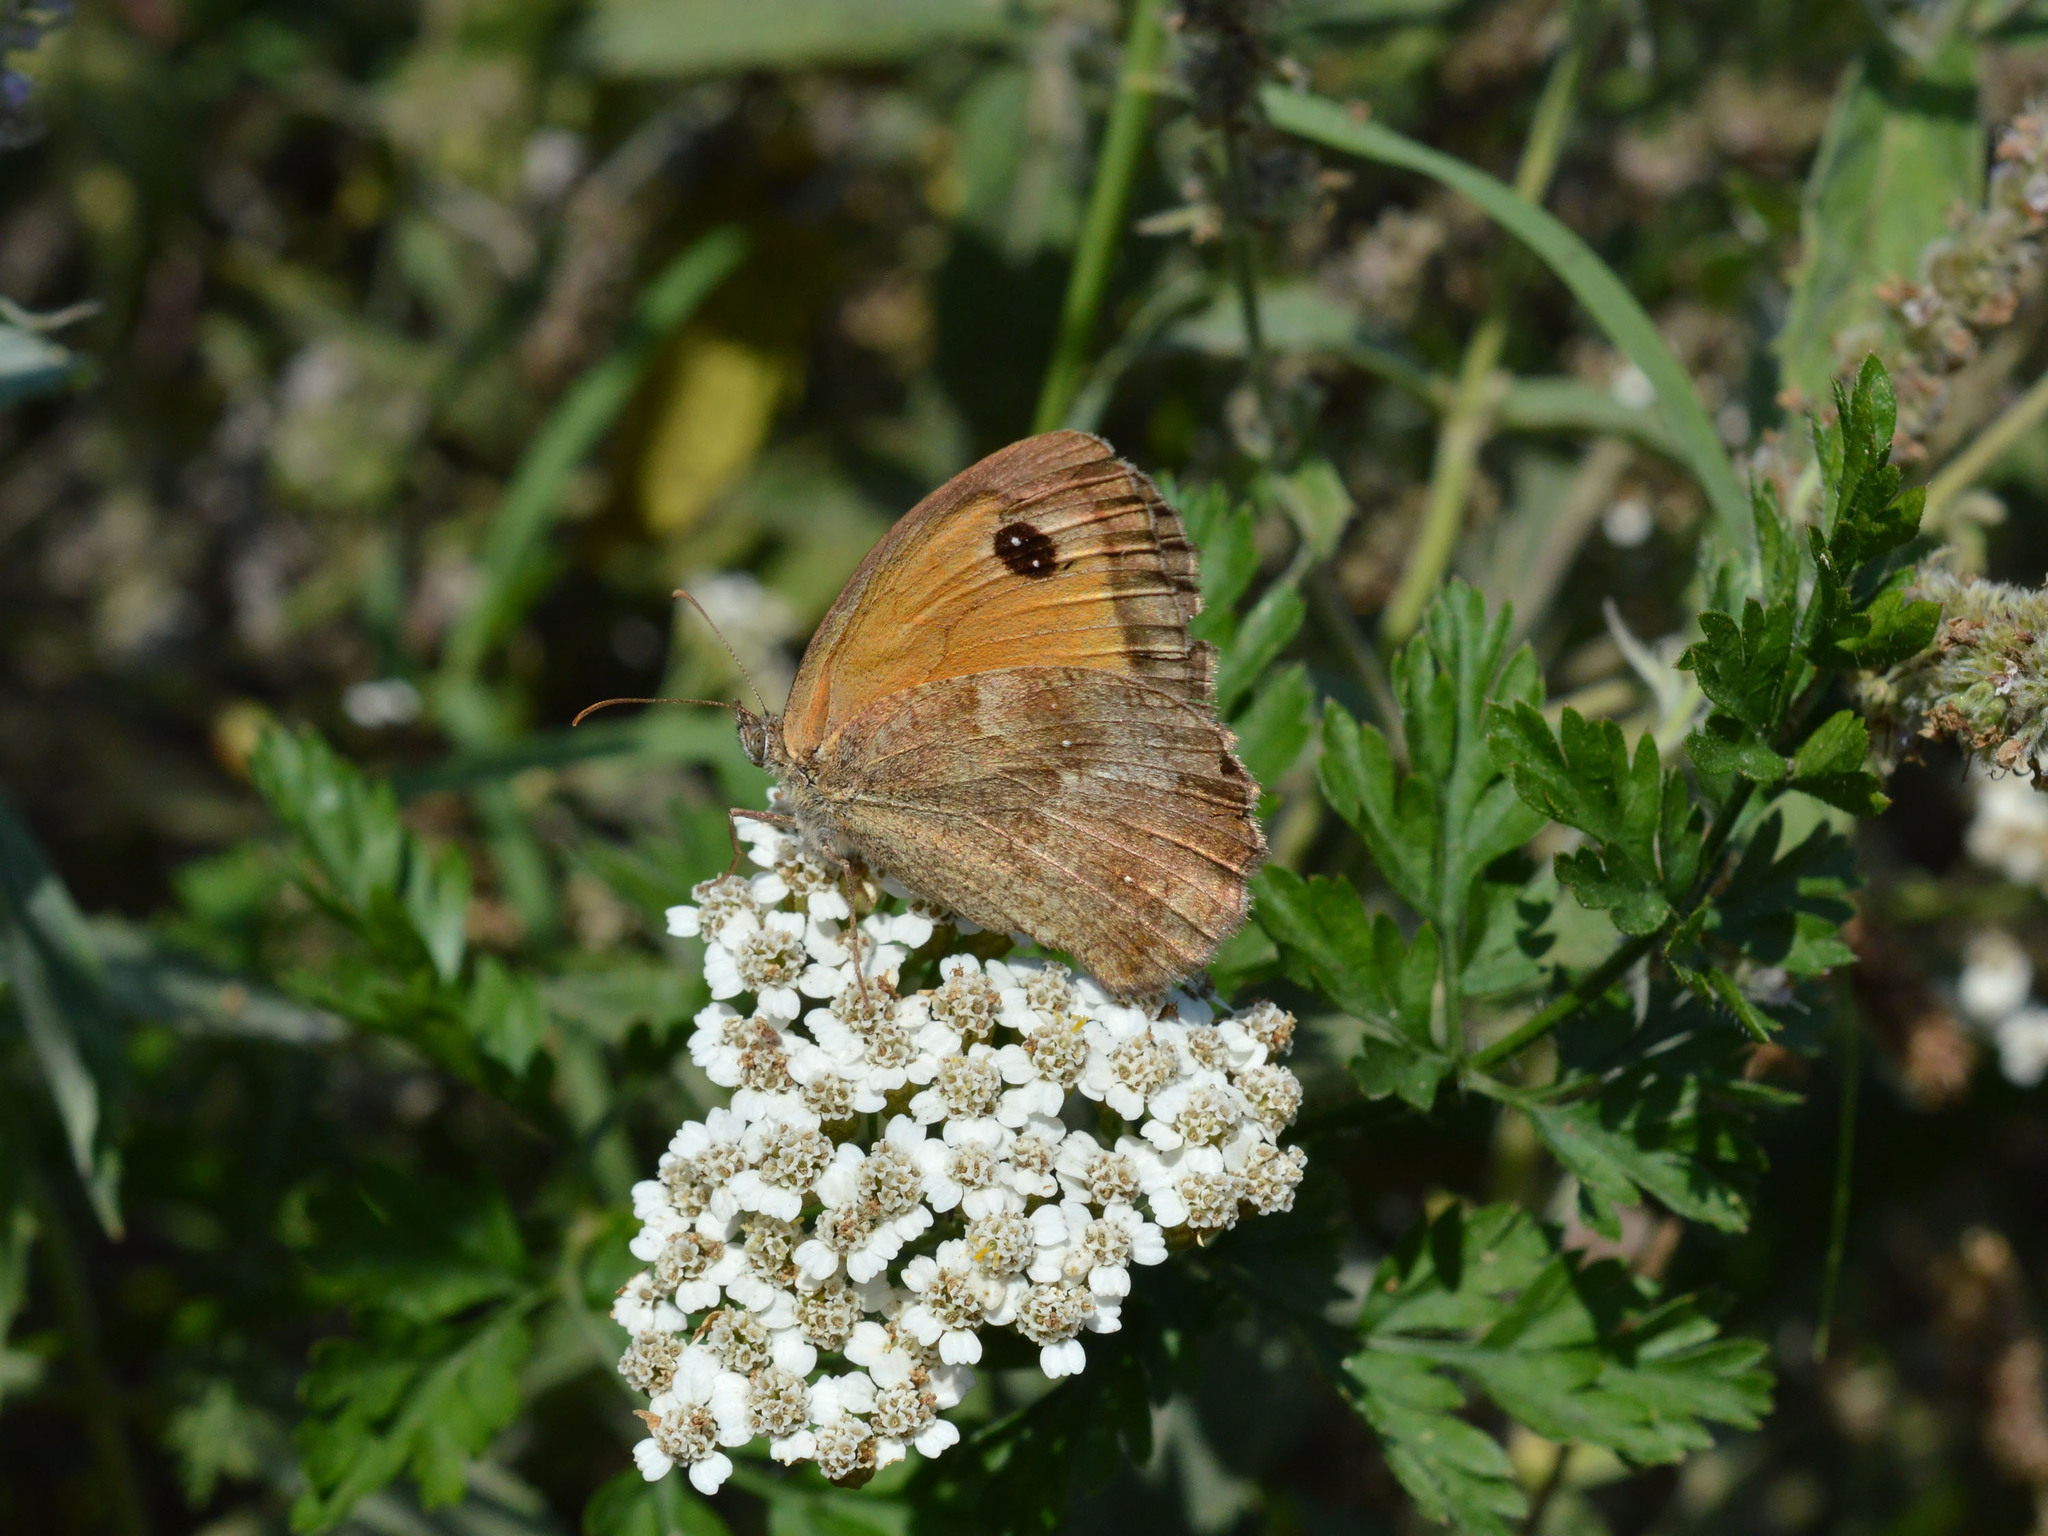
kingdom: Animalia
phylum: Arthropoda
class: Insecta
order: Lepidoptera
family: Nymphalidae
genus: Pyronia
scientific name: Pyronia tithonus
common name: Gatekeeper
